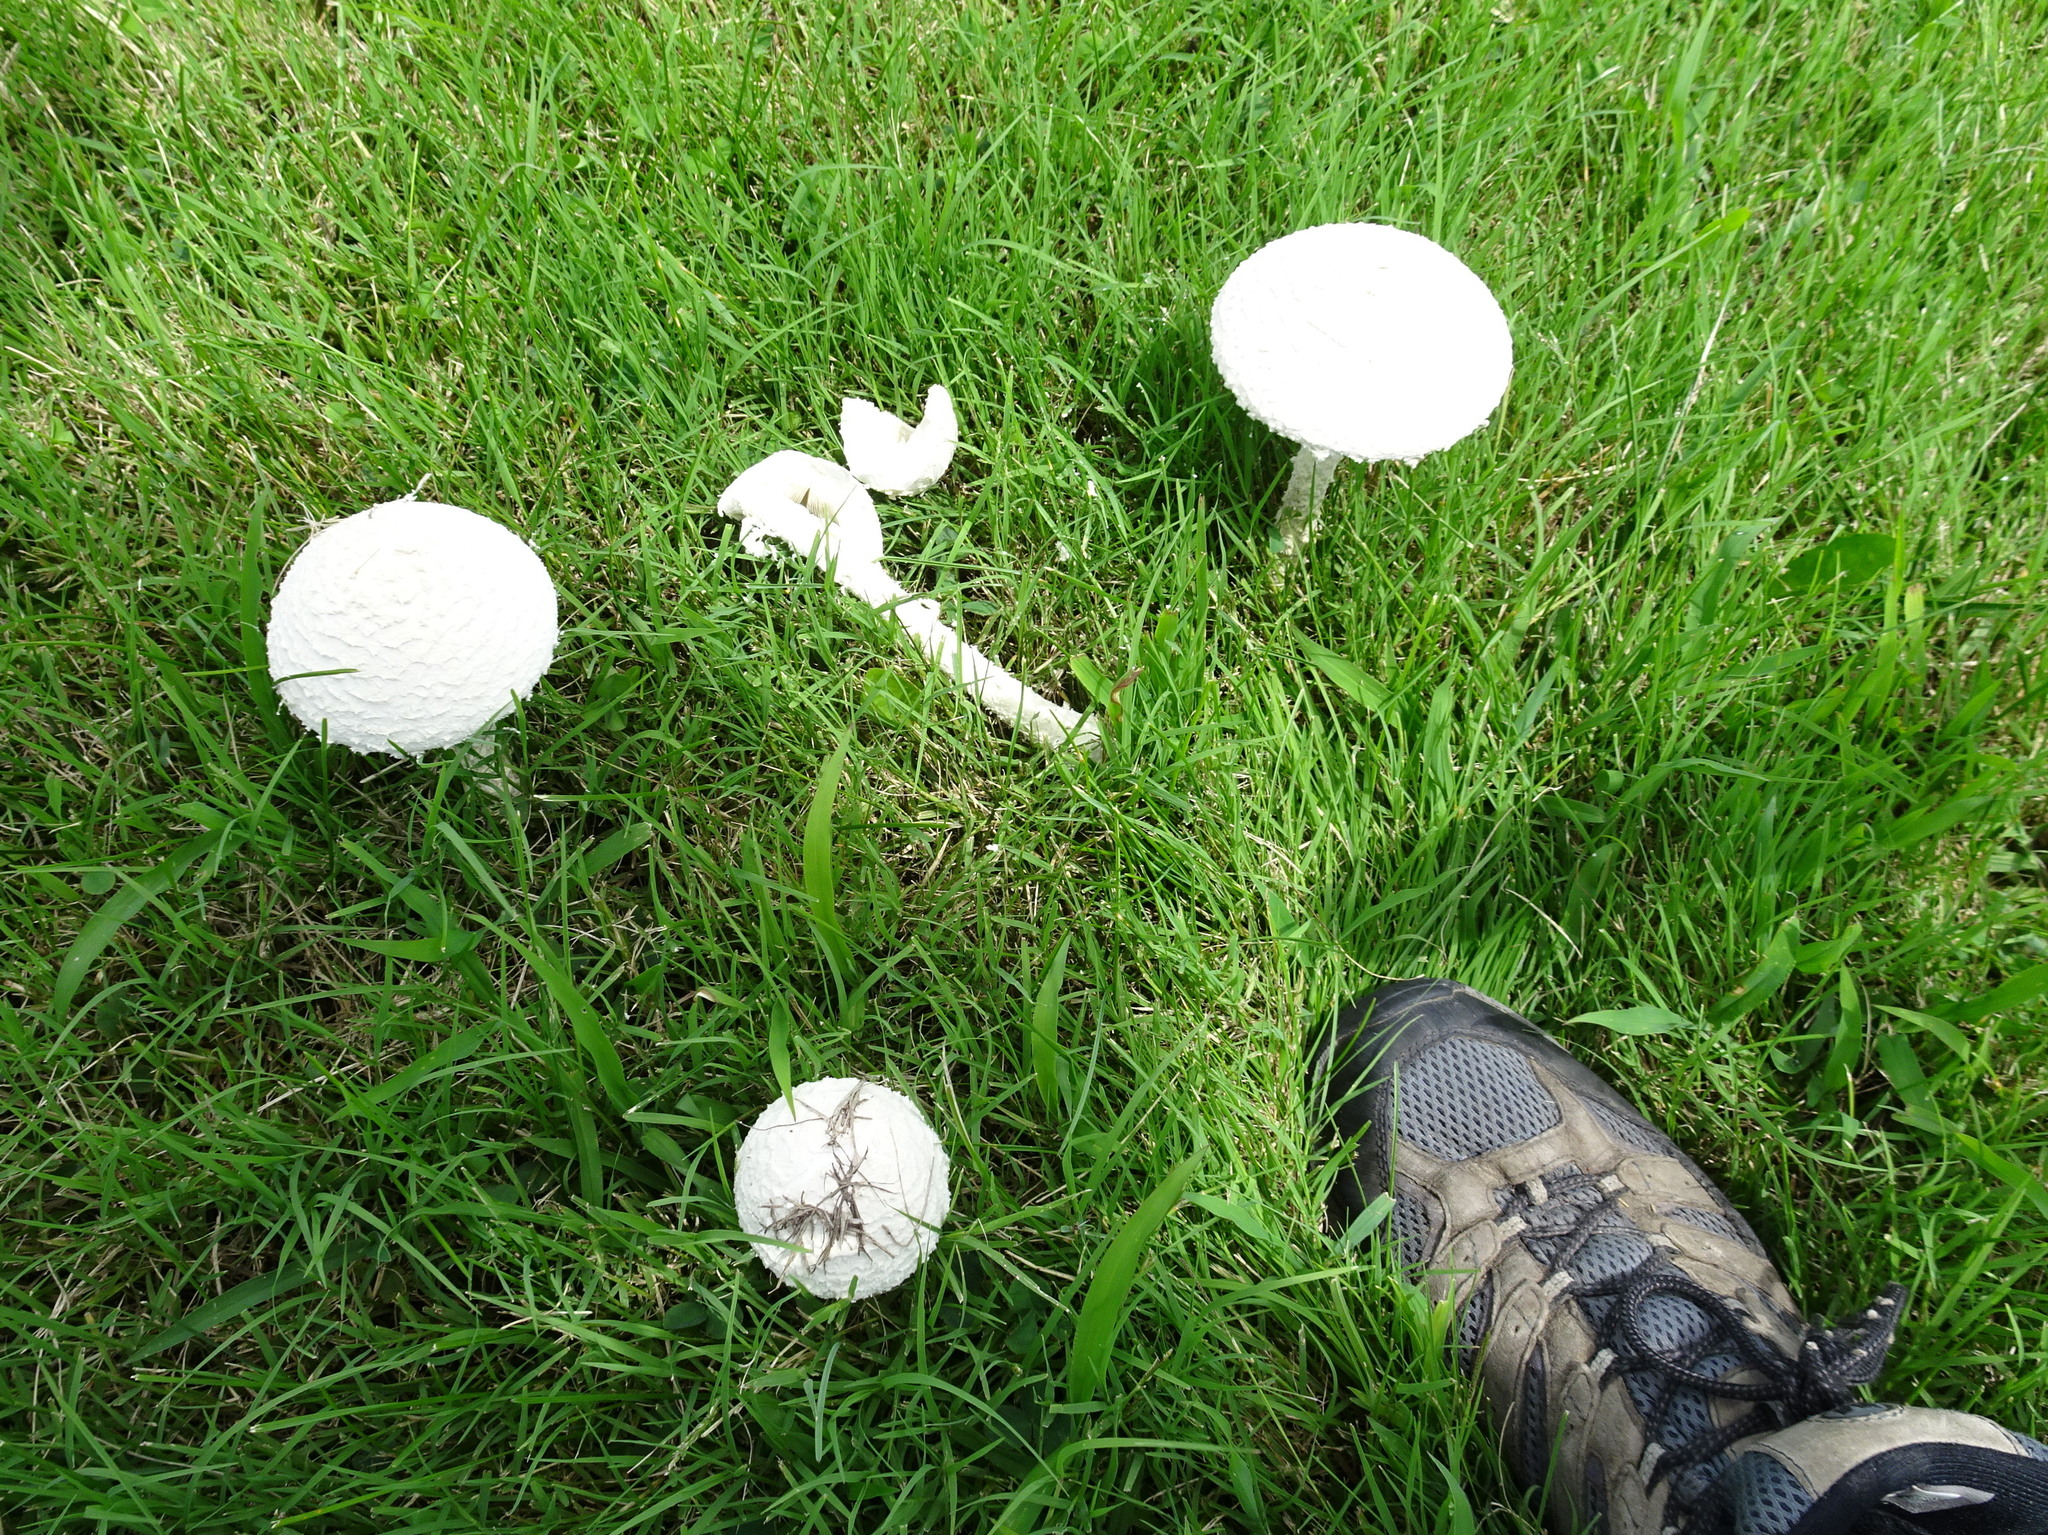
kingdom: Fungi
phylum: Basidiomycota
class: Agaricomycetes
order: Agaricales
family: Amanitaceae
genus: Amanita
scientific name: Amanita thiersii
